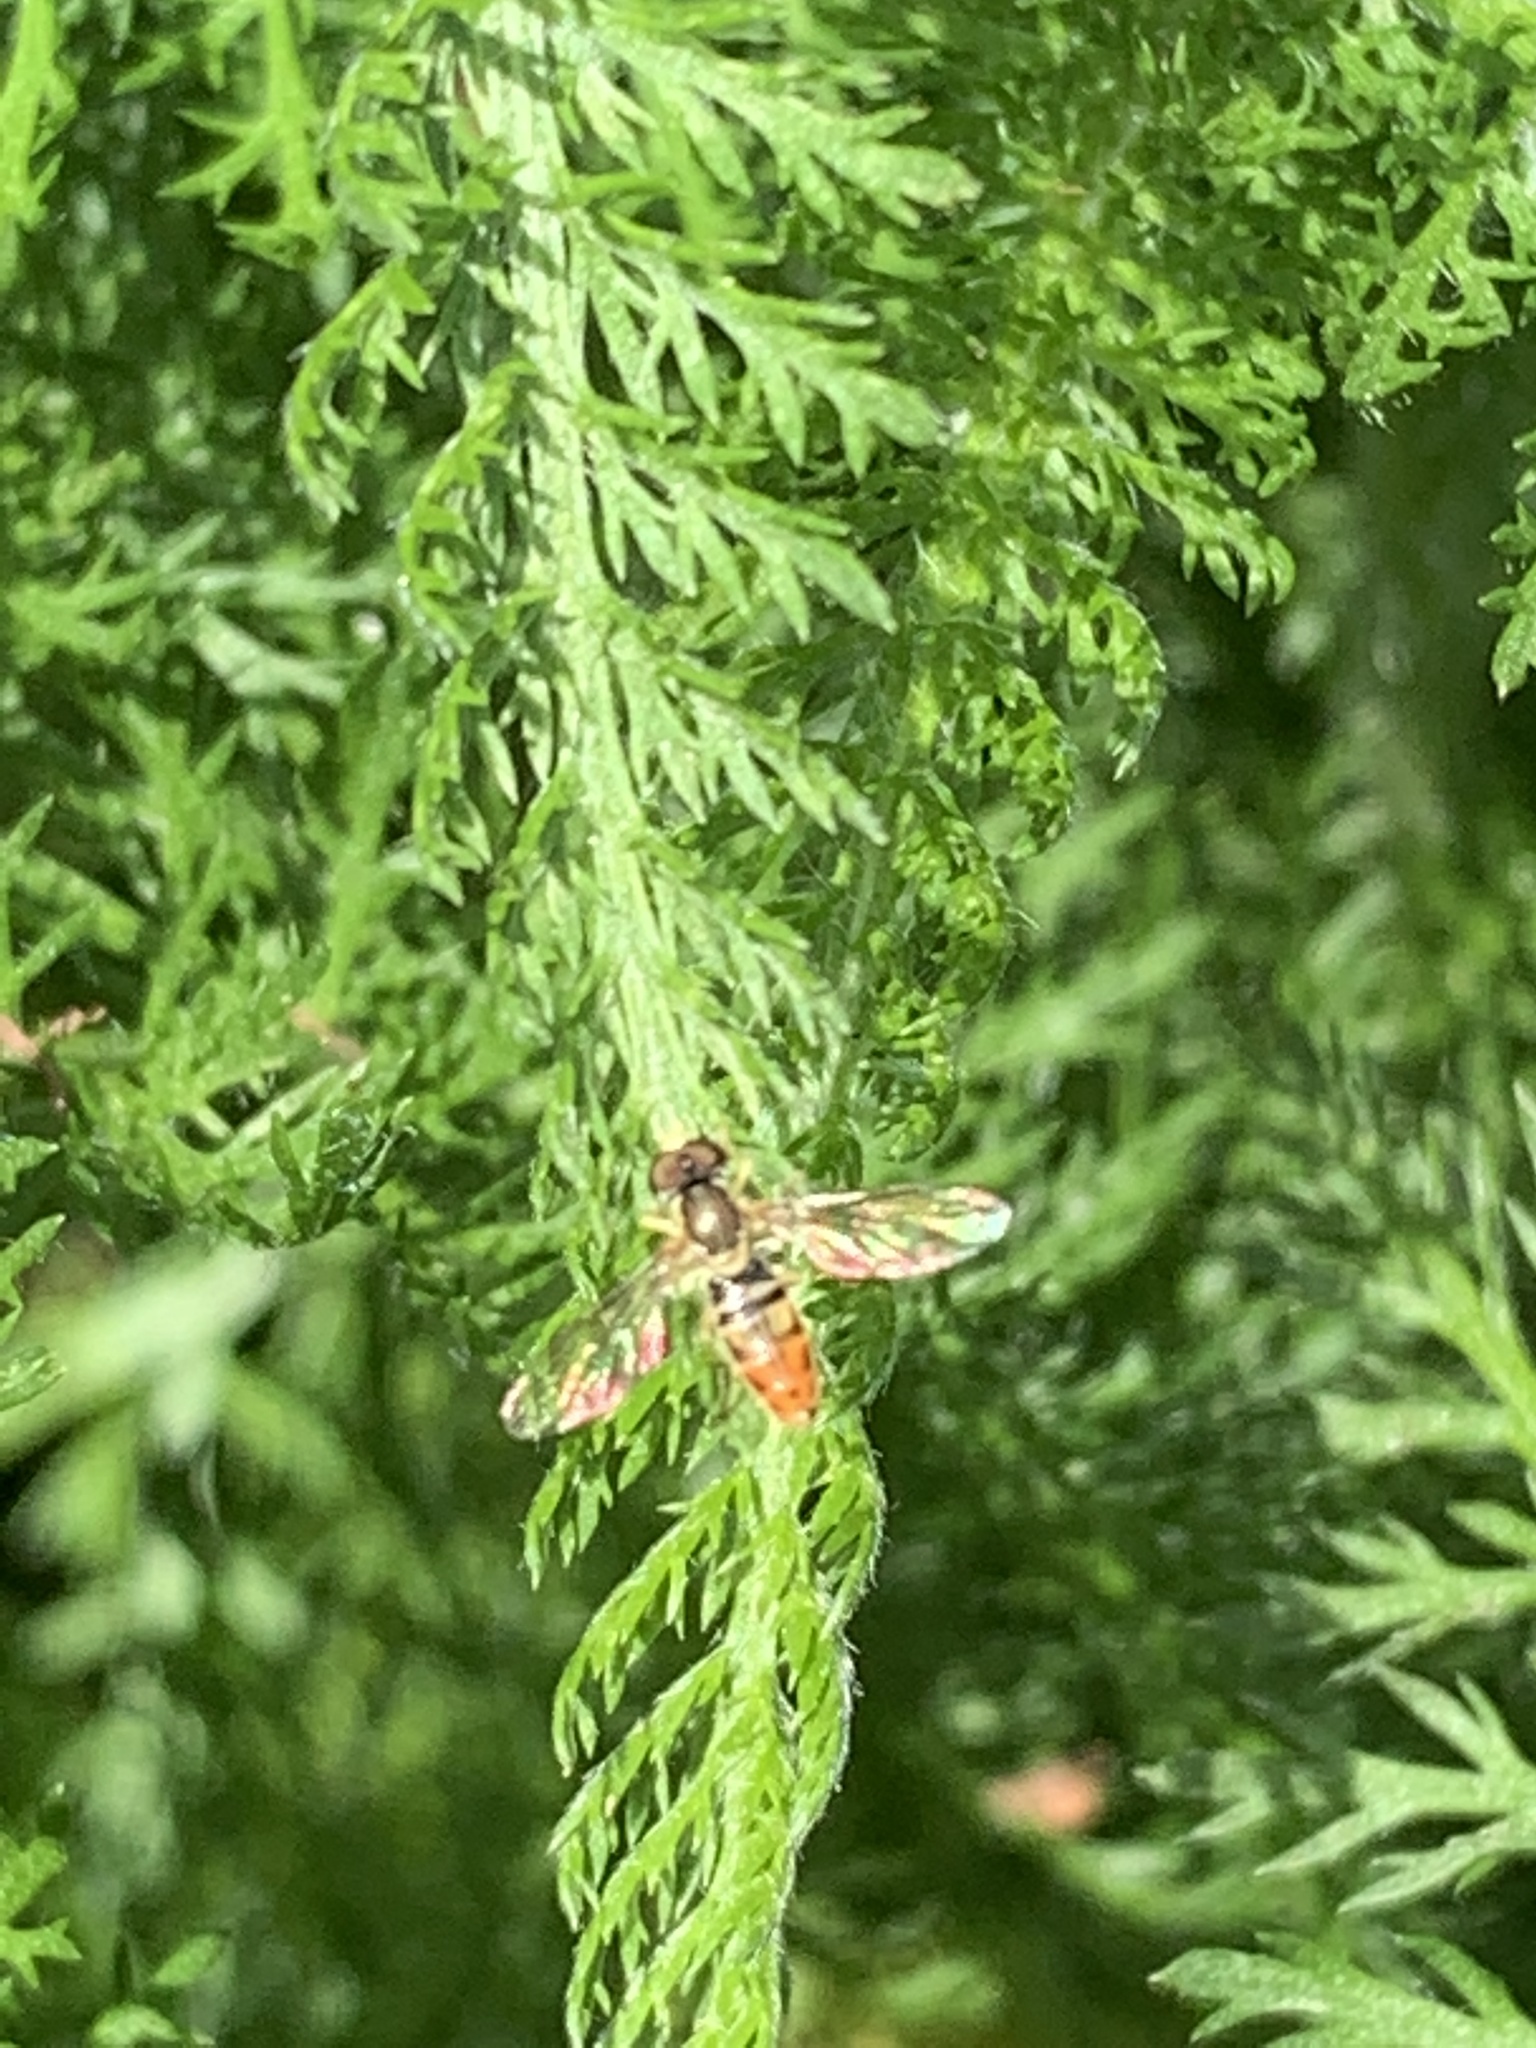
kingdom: Animalia
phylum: Arthropoda
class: Insecta
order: Diptera
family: Syrphidae
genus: Toxomerus
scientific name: Toxomerus marginatus
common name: Syrphid fly
